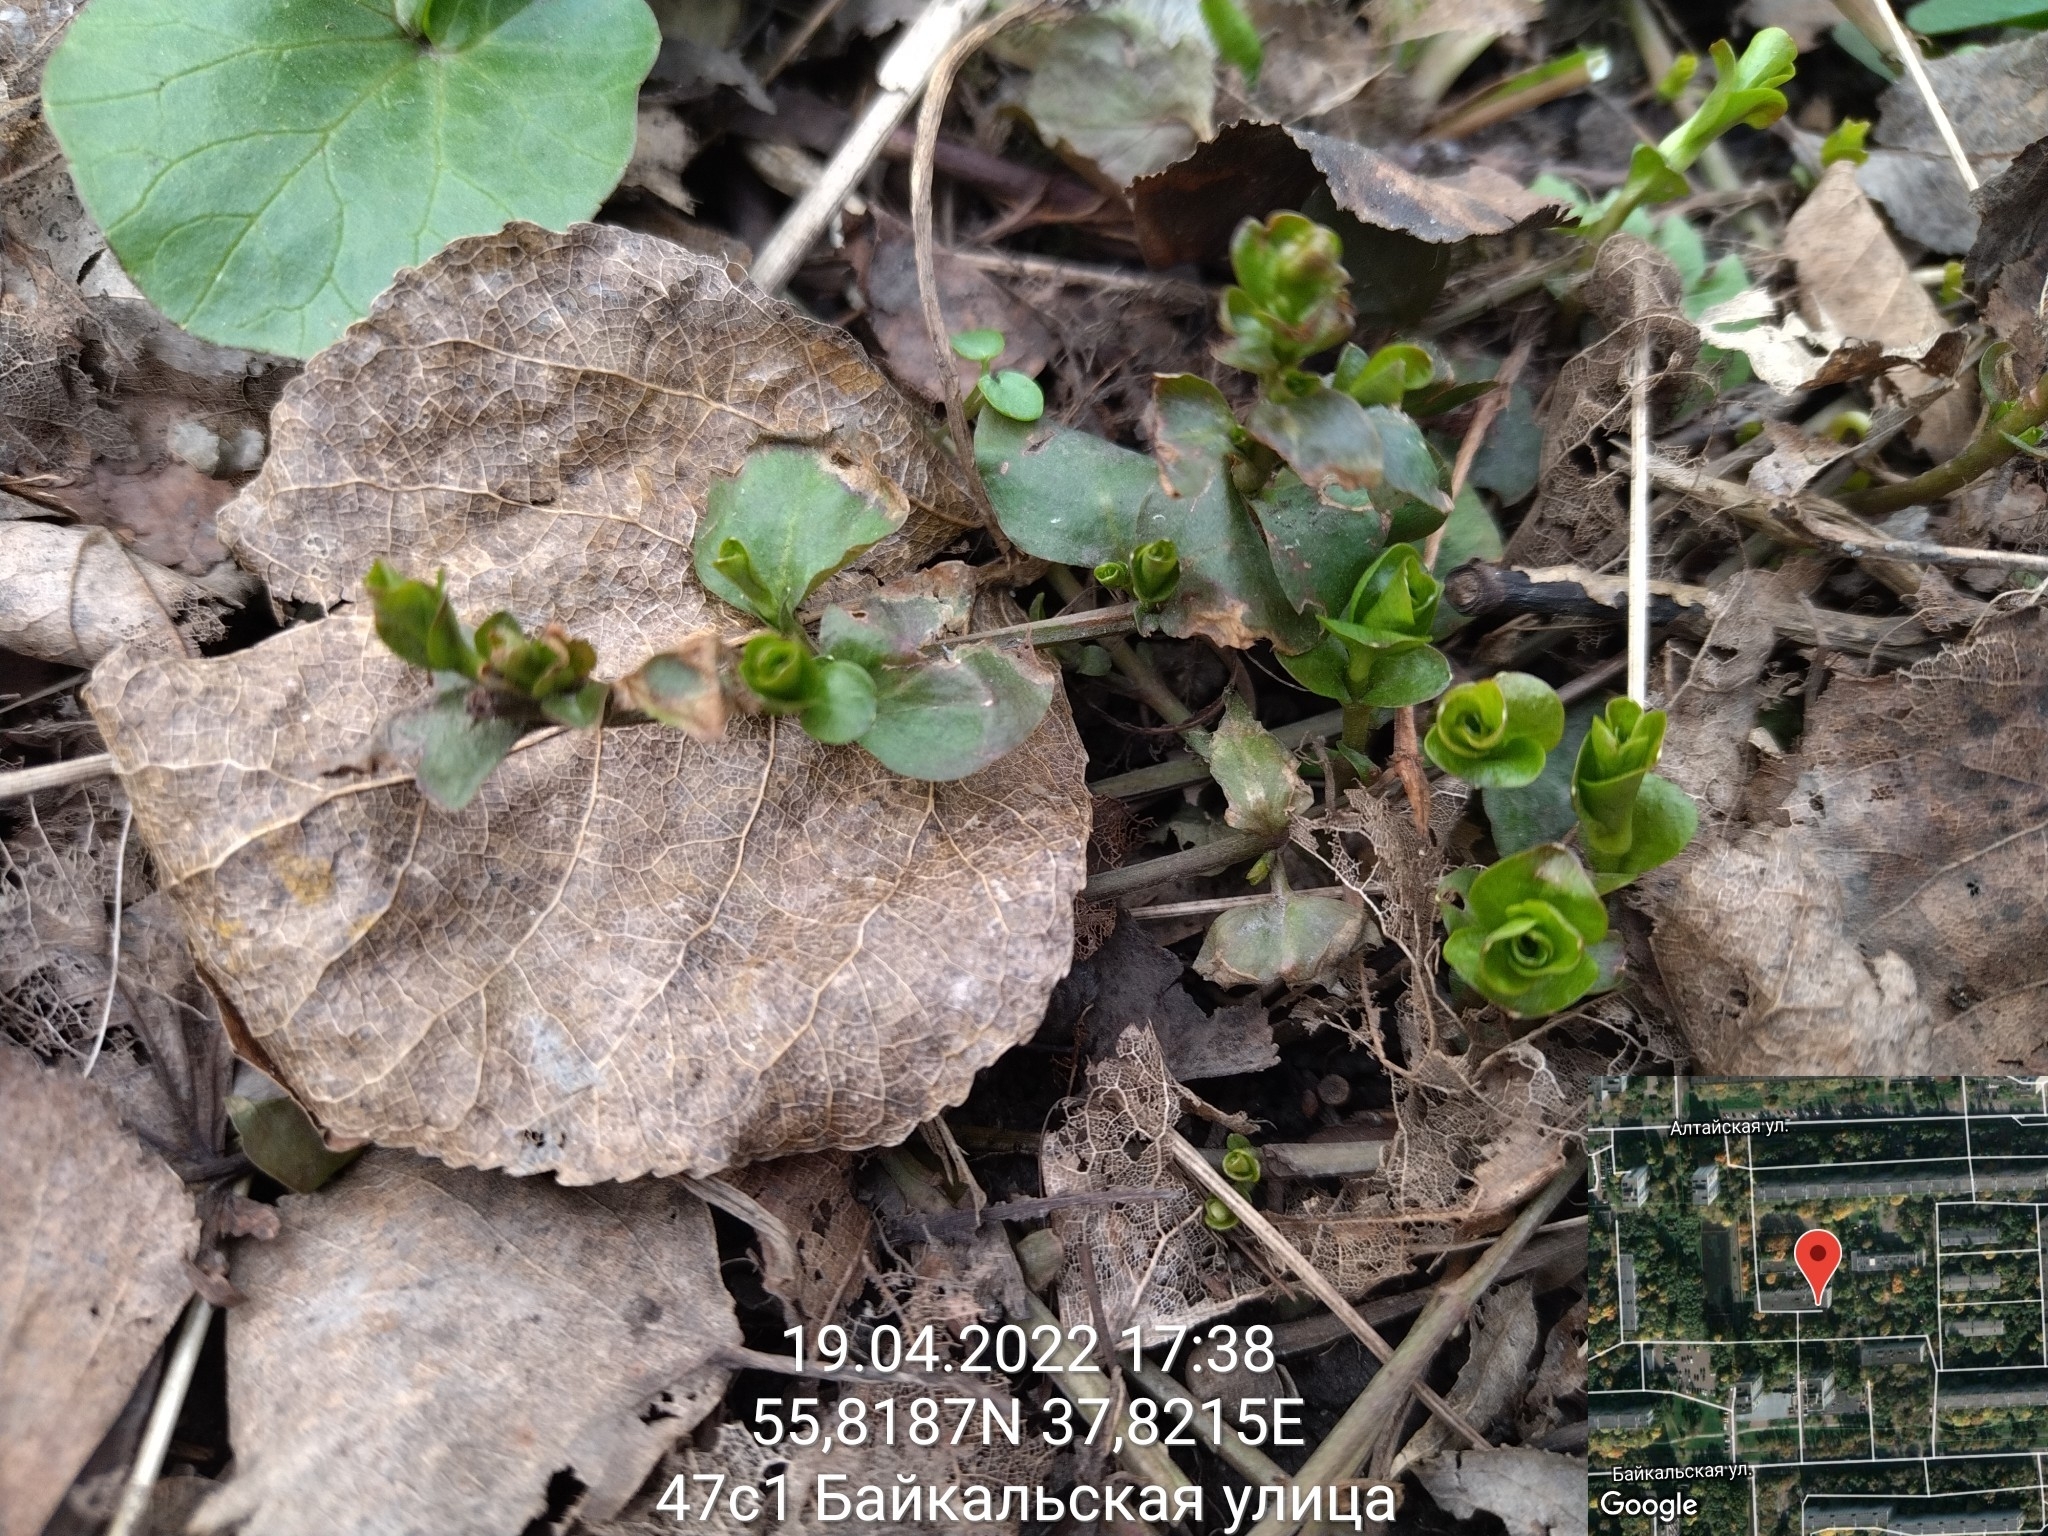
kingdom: Plantae
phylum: Tracheophyta
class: Magnoliopsida
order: Ericales
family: Primulaceae
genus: Lysimachia
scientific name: Lysimachia nummularia
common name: Moneywort
